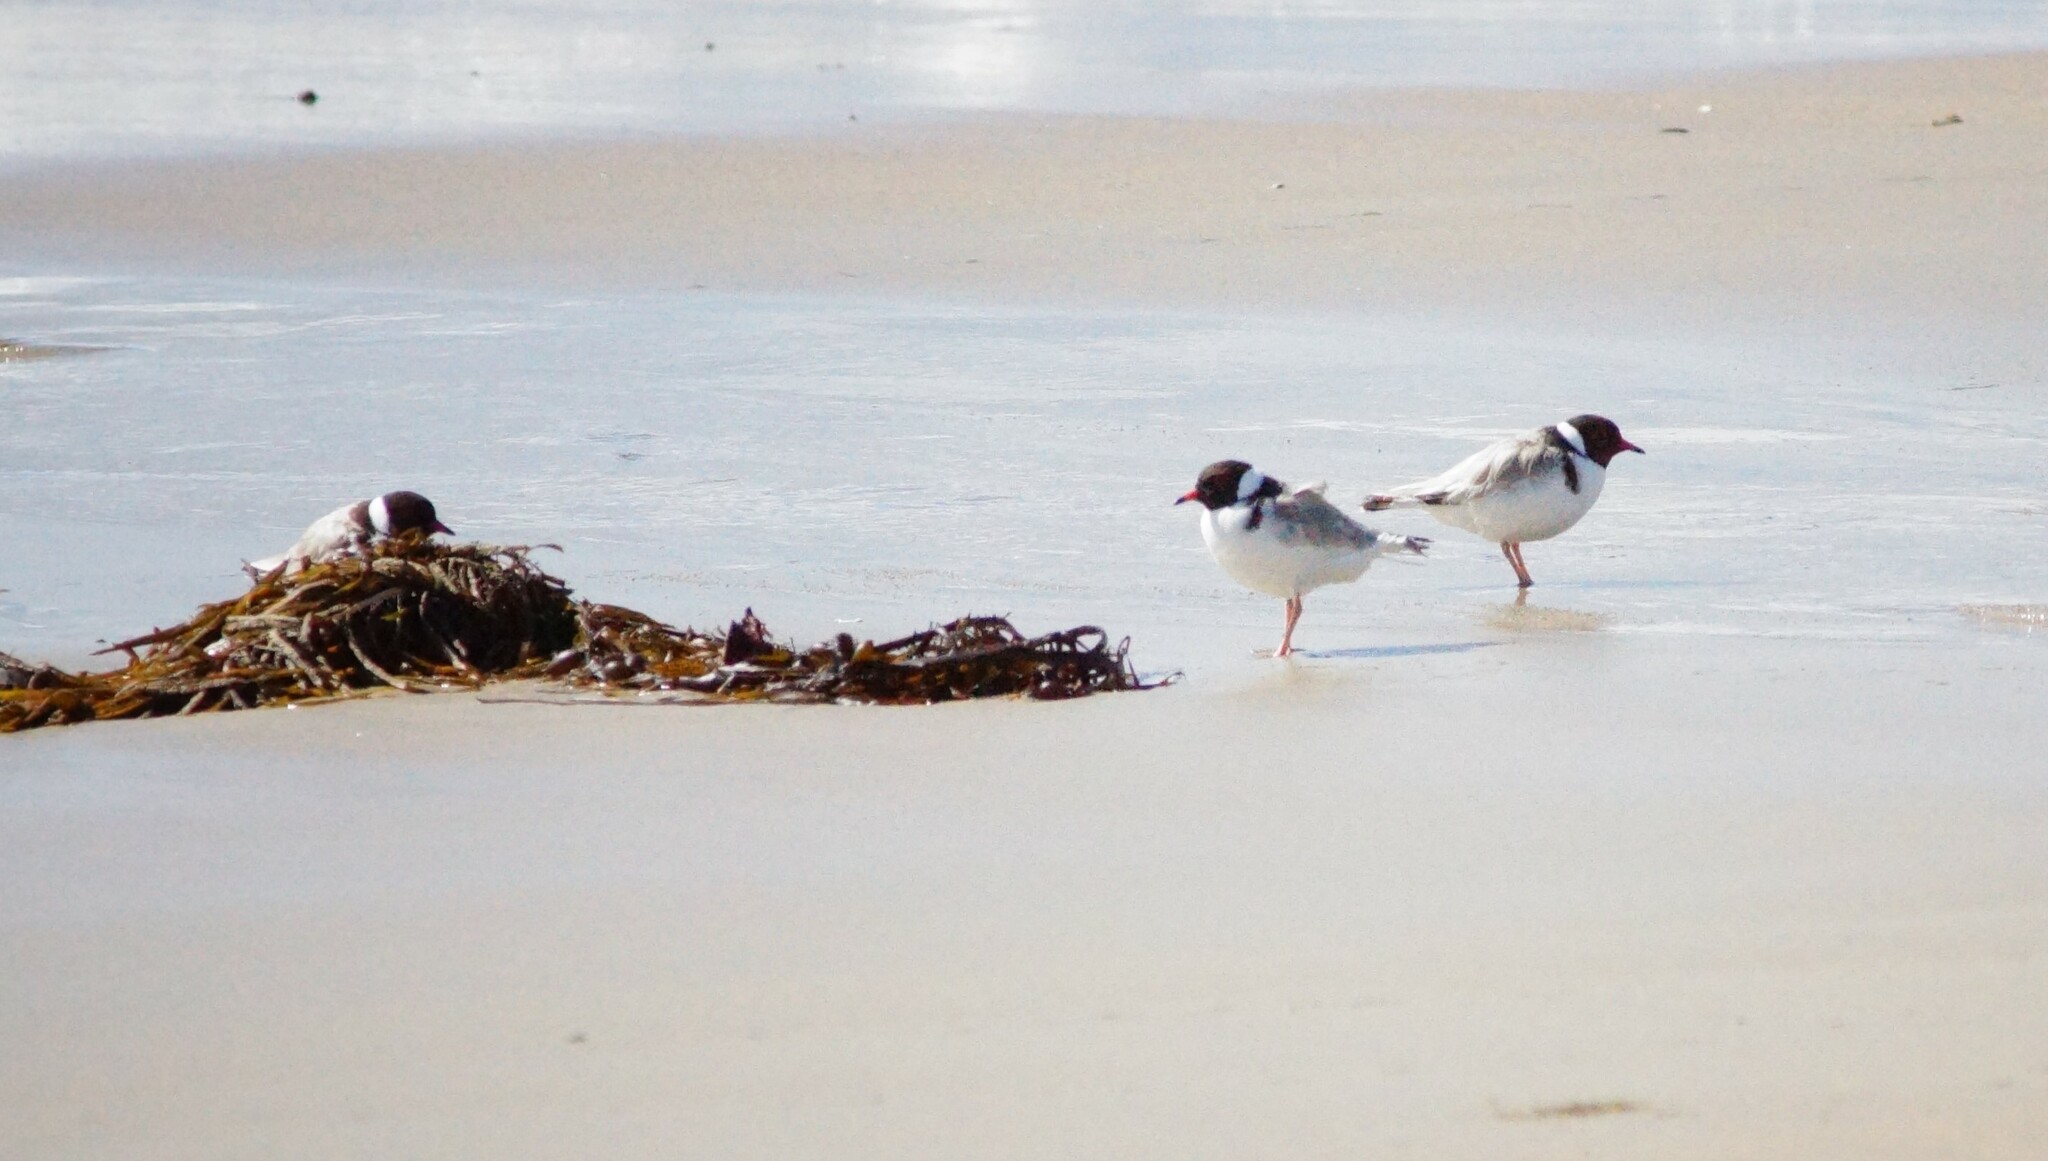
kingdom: Animalia
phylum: Chordata
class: Aves
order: Charadriiformes
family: Charadriidae
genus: Thinornis
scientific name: Thinornis cucullatus
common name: Hooded dotterel
